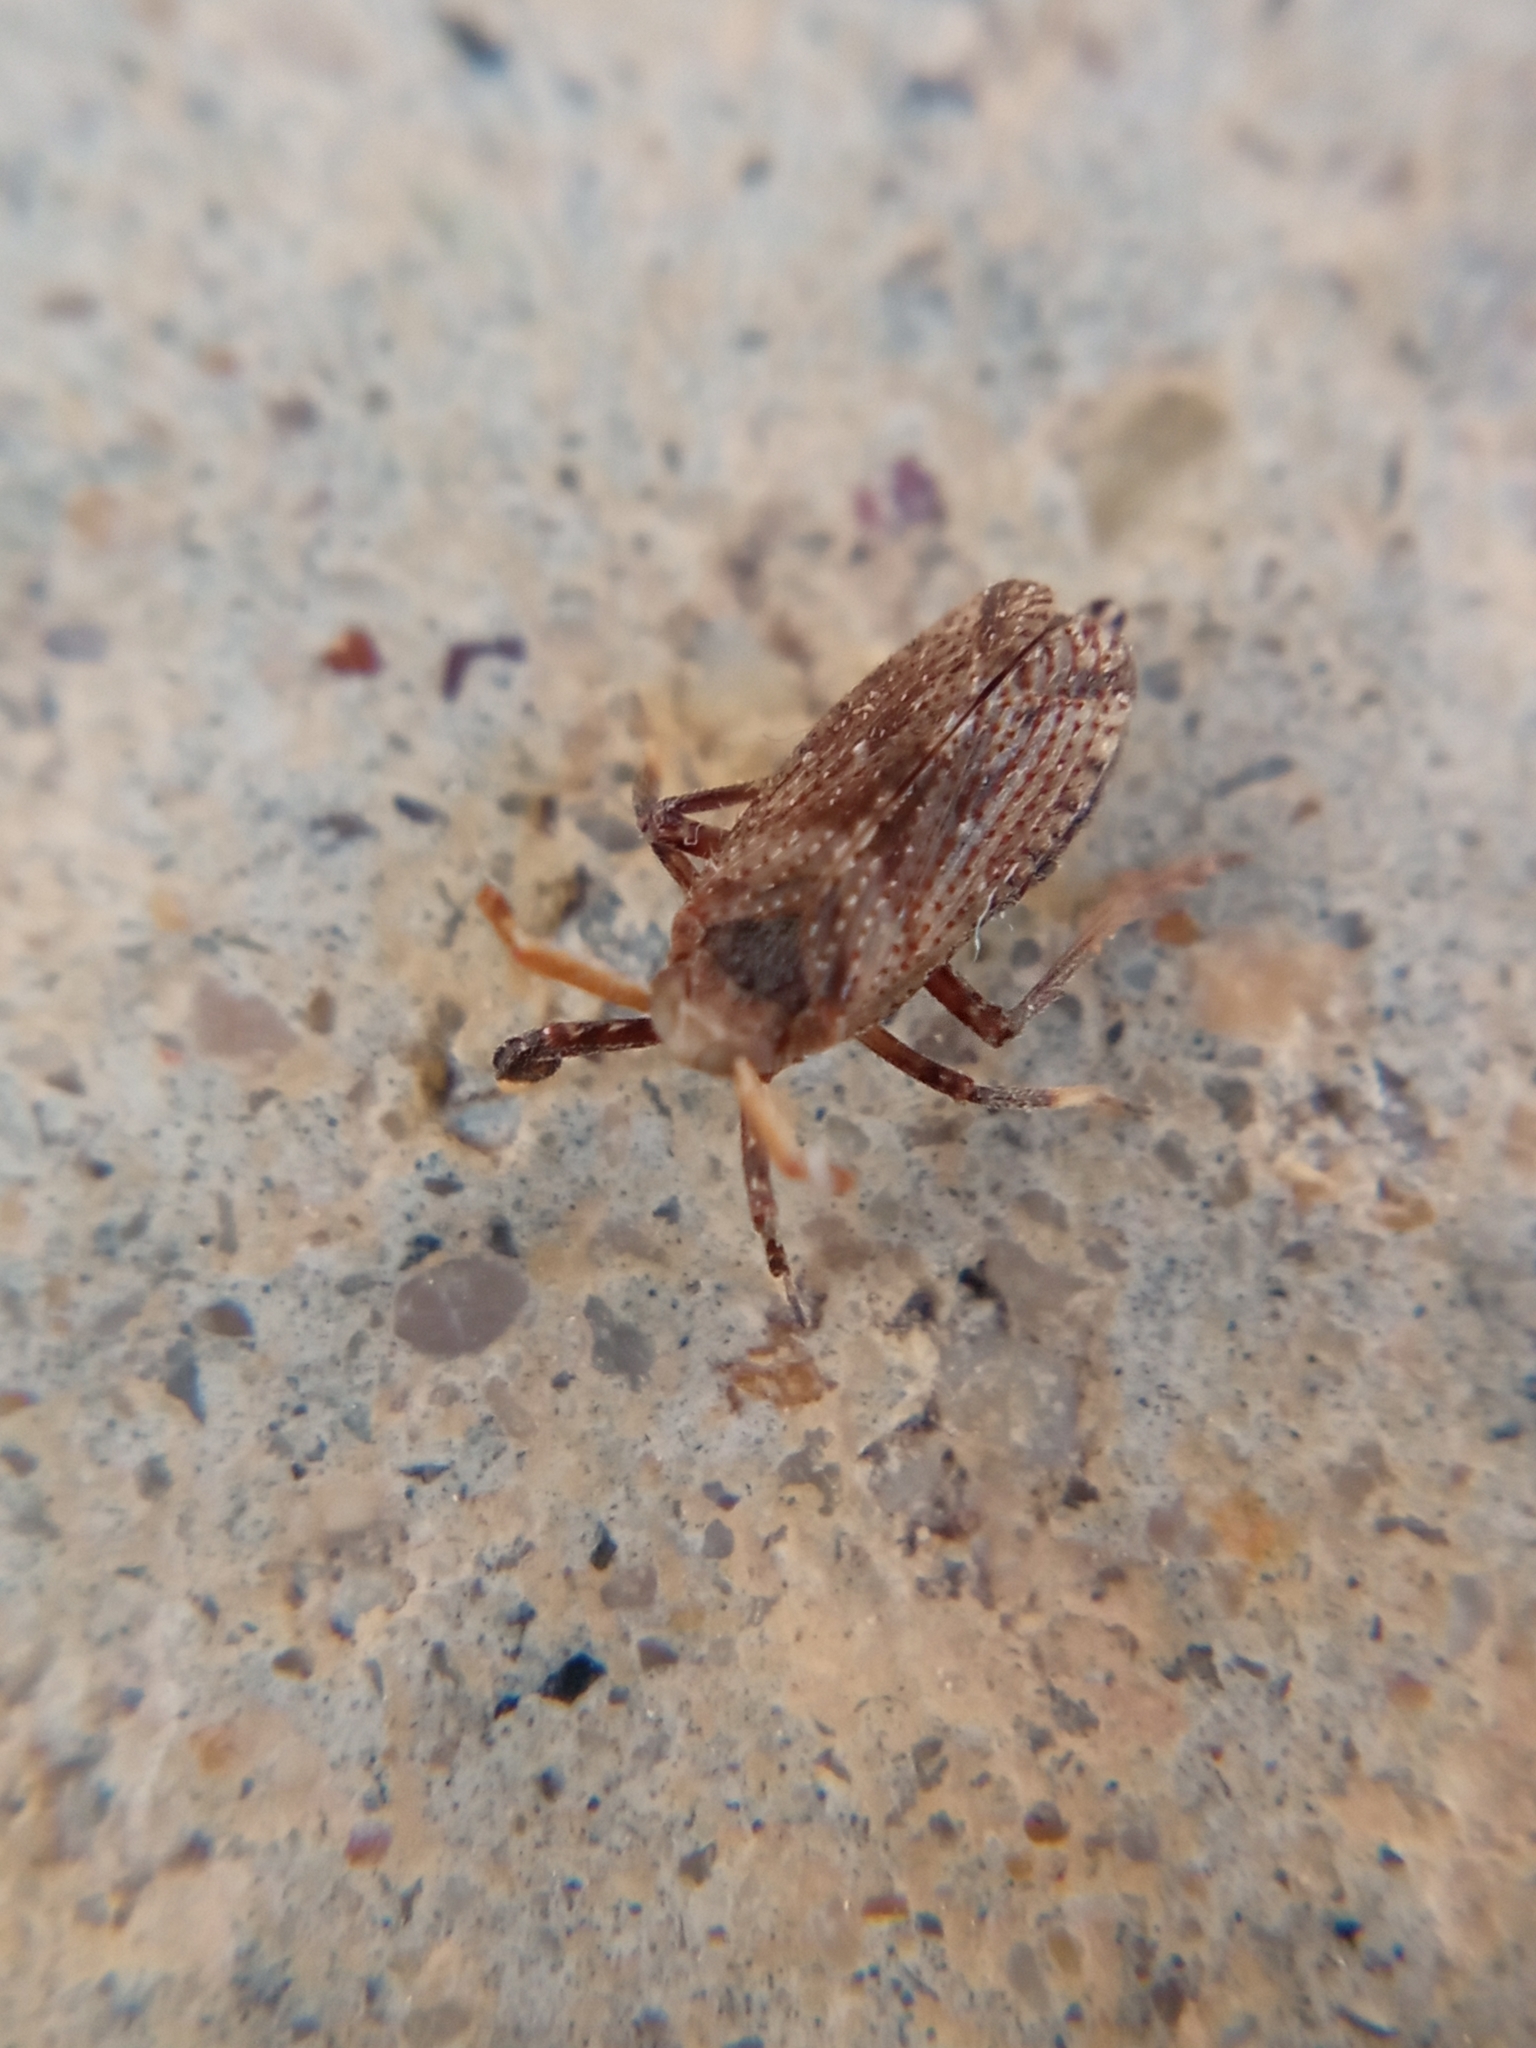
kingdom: Animalia
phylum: Arthropoda
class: Insecta
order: Hemiptera
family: Delphacidae
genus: Asiraca
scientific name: Asiraca clavicornis
